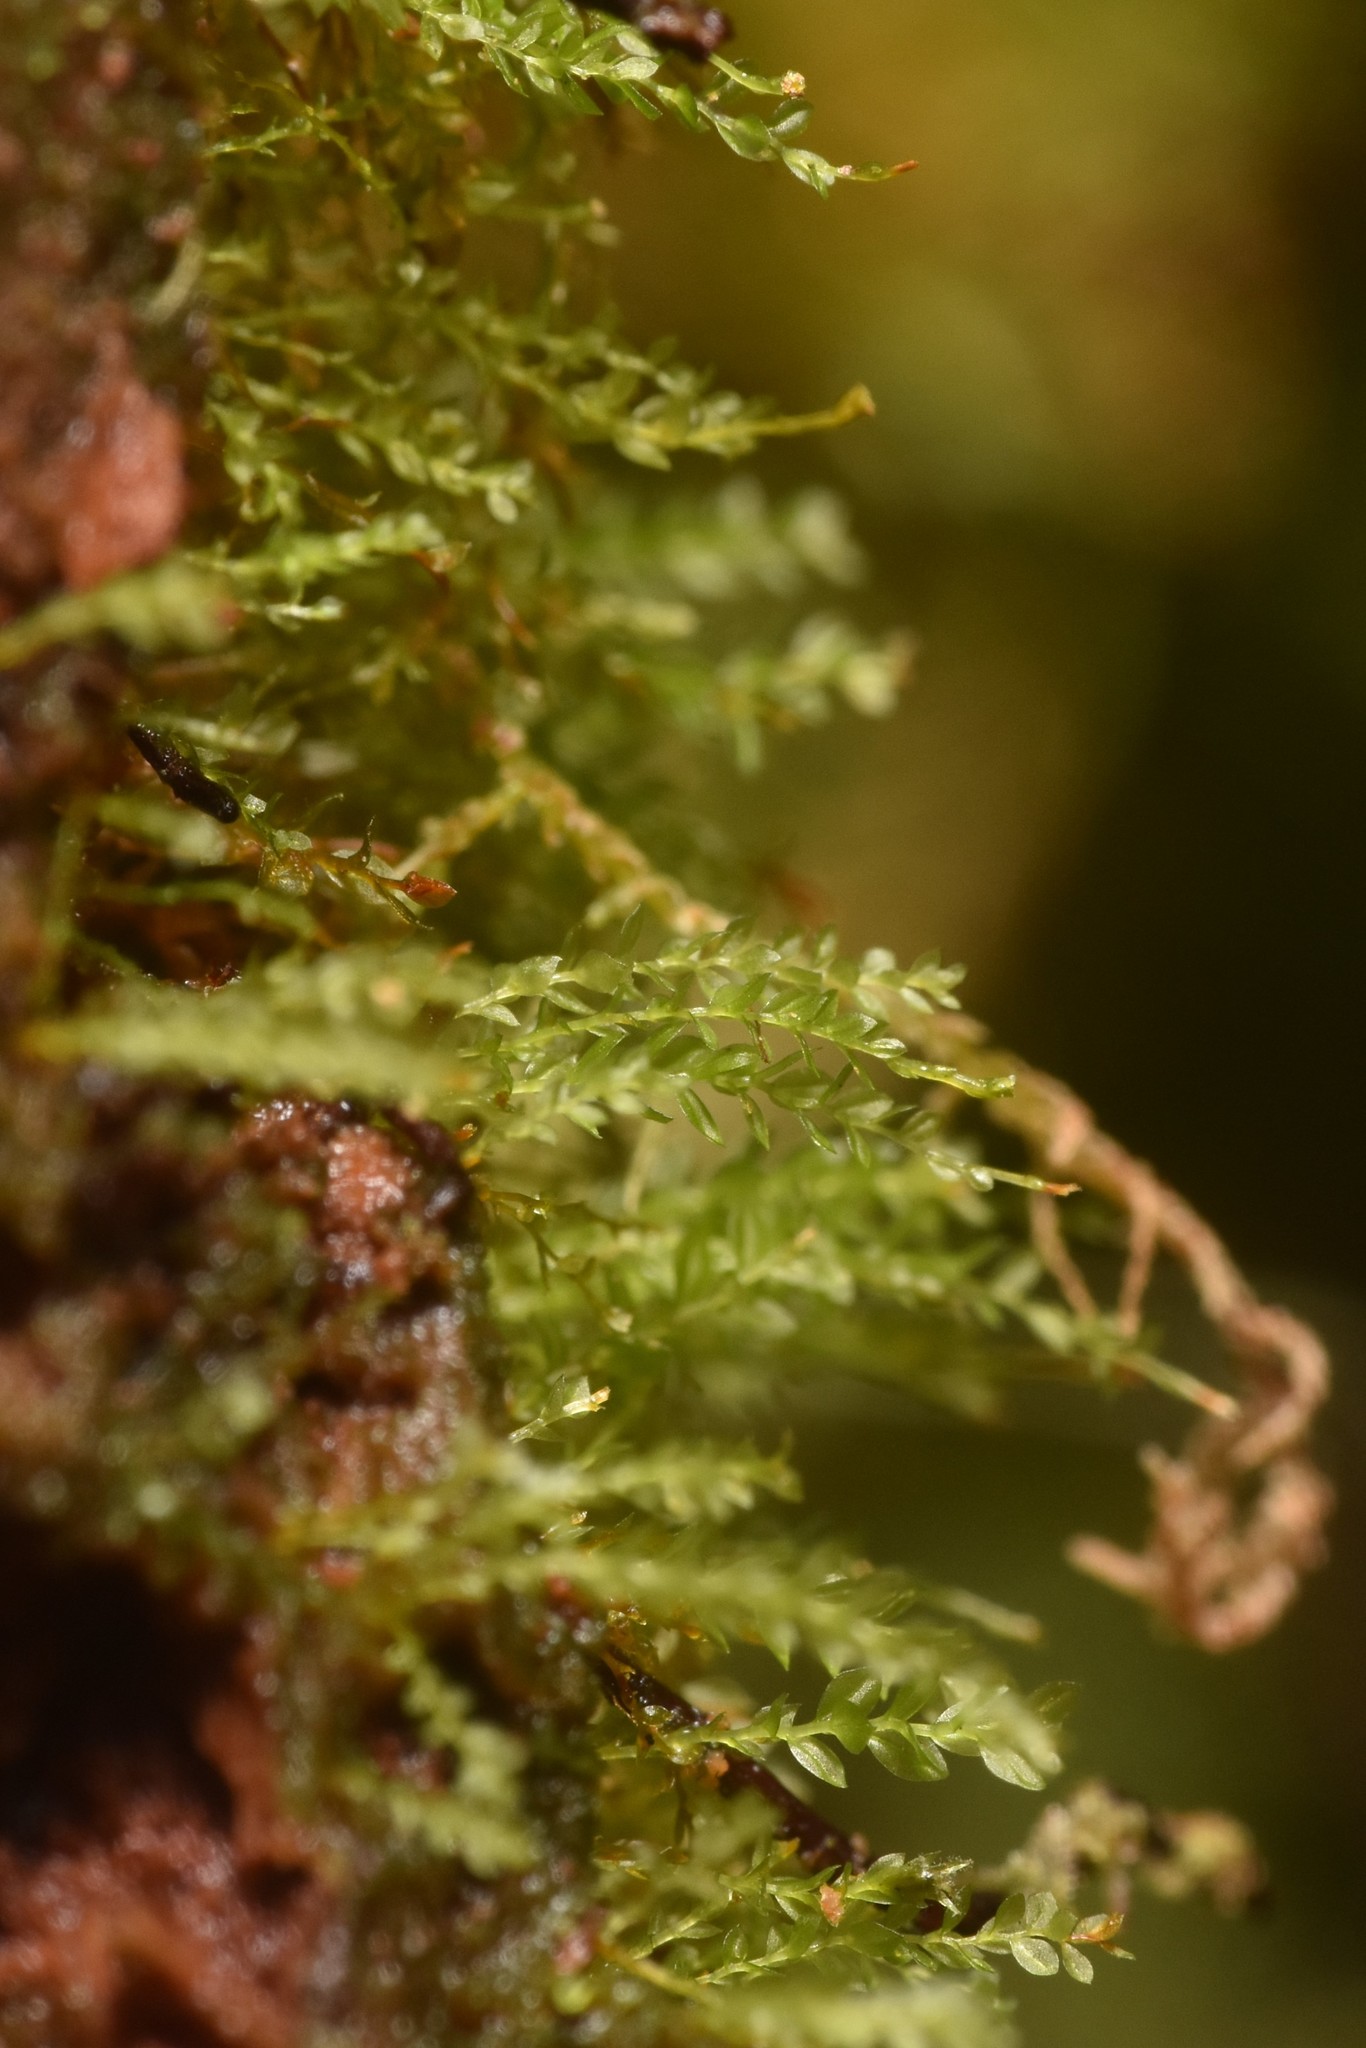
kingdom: Plantae
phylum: Bryophyta
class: Polytrichopsida
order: Tetraphidales
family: Tetraphidaceae
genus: Tetraphis
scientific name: Tetraphis pellucida
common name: Common four-toothed moss
